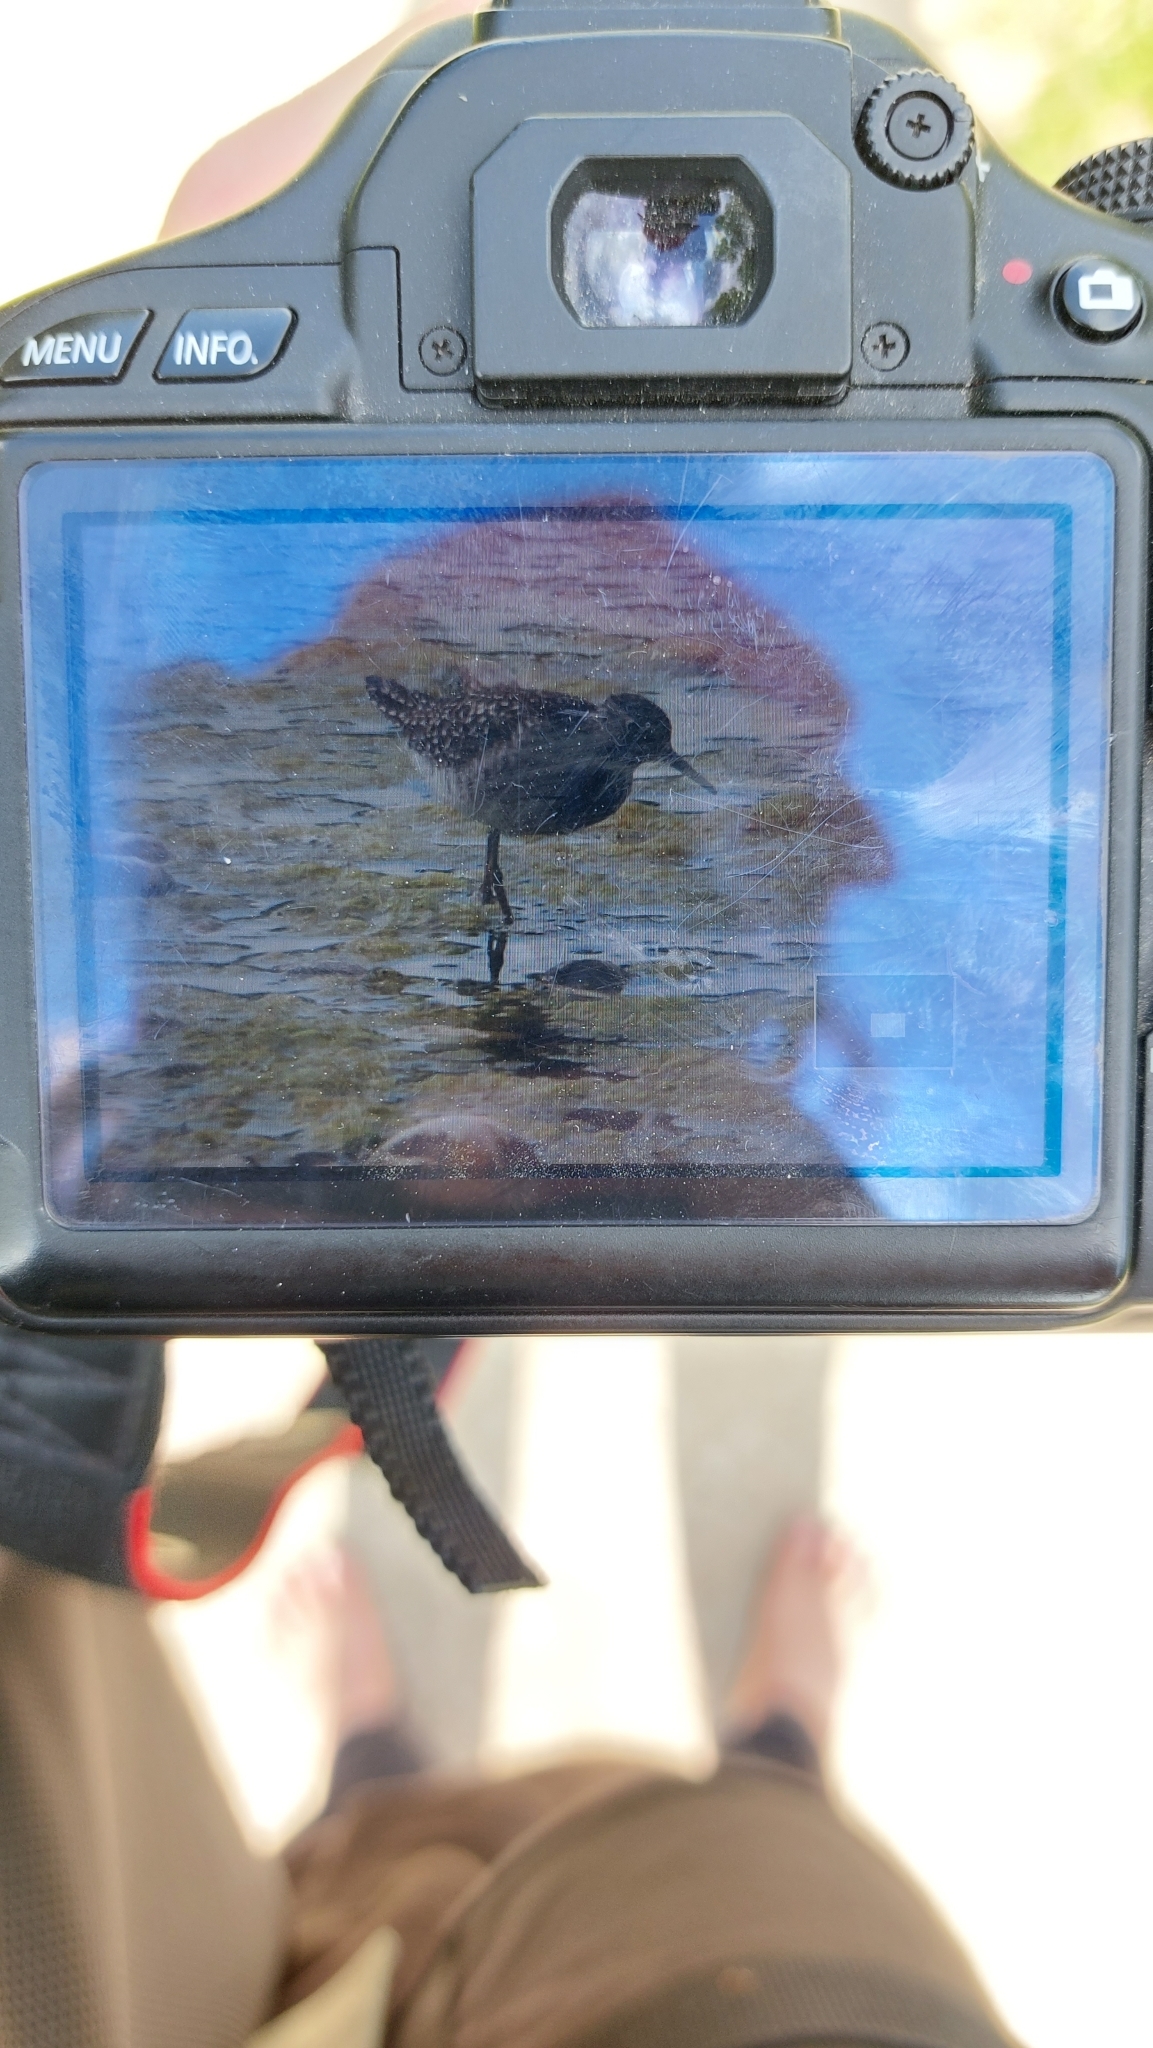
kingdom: Animalia
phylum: Chordata
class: Aves
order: Charadriiformes
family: Scolopacidae
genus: Tringa
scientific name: Tringa glareola
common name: Wood sandpiper
